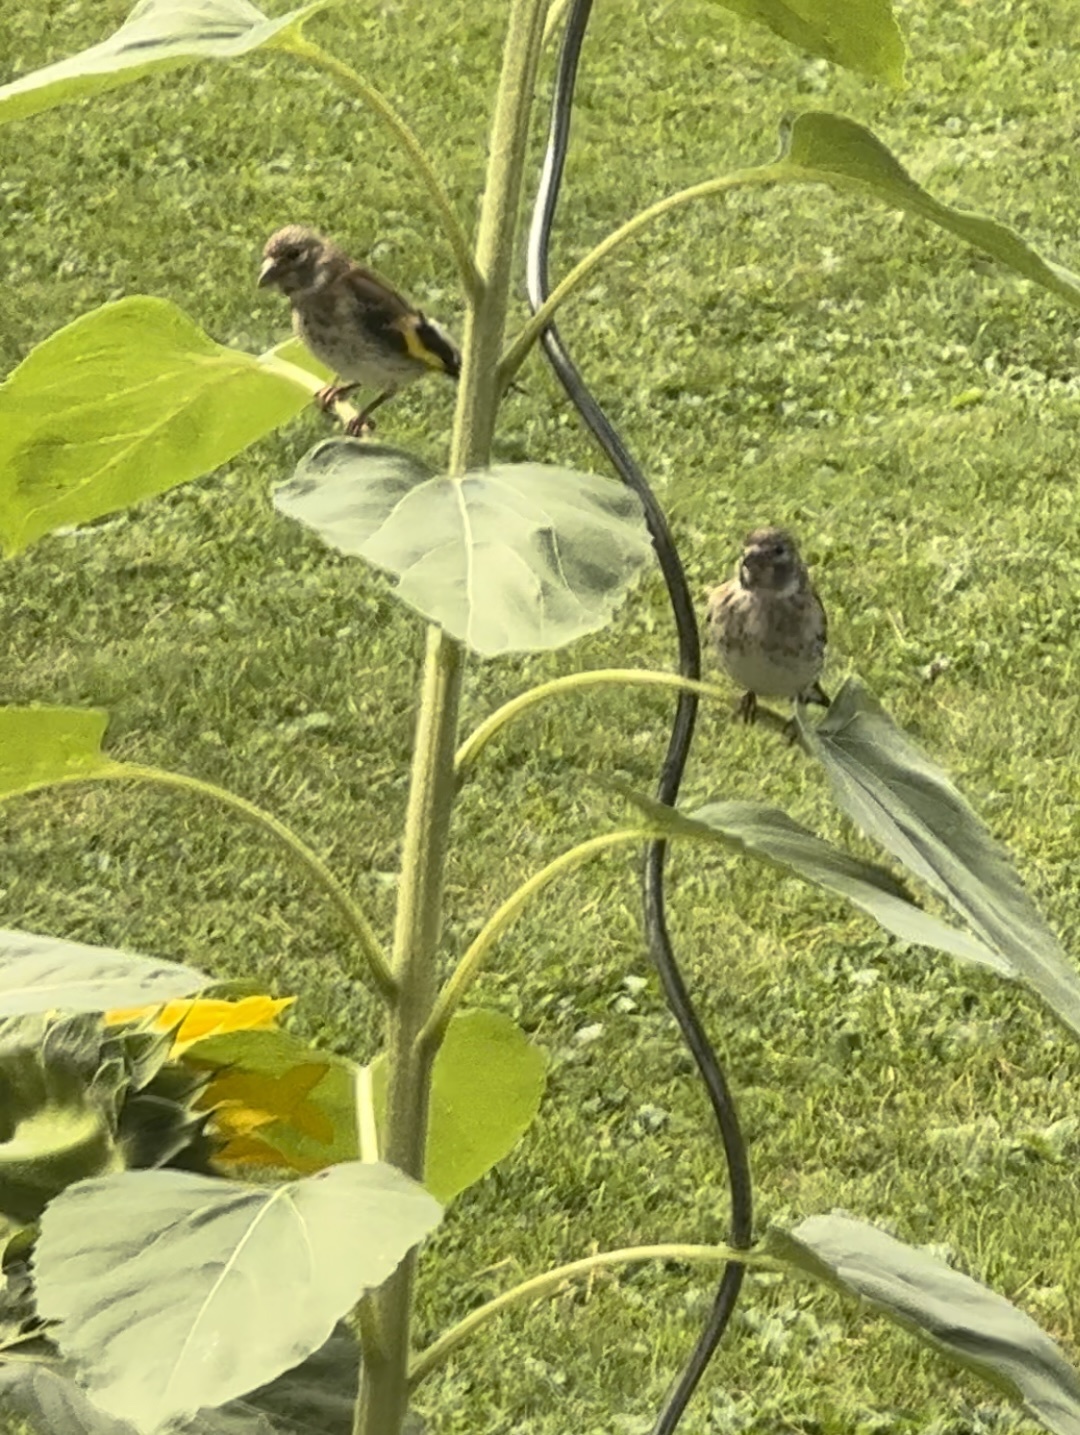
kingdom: Animalia
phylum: Chordata
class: Aves
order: Passeriformes
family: Fringillidae
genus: Carduelis
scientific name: Carduelis carduelis
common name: European goldfinch
